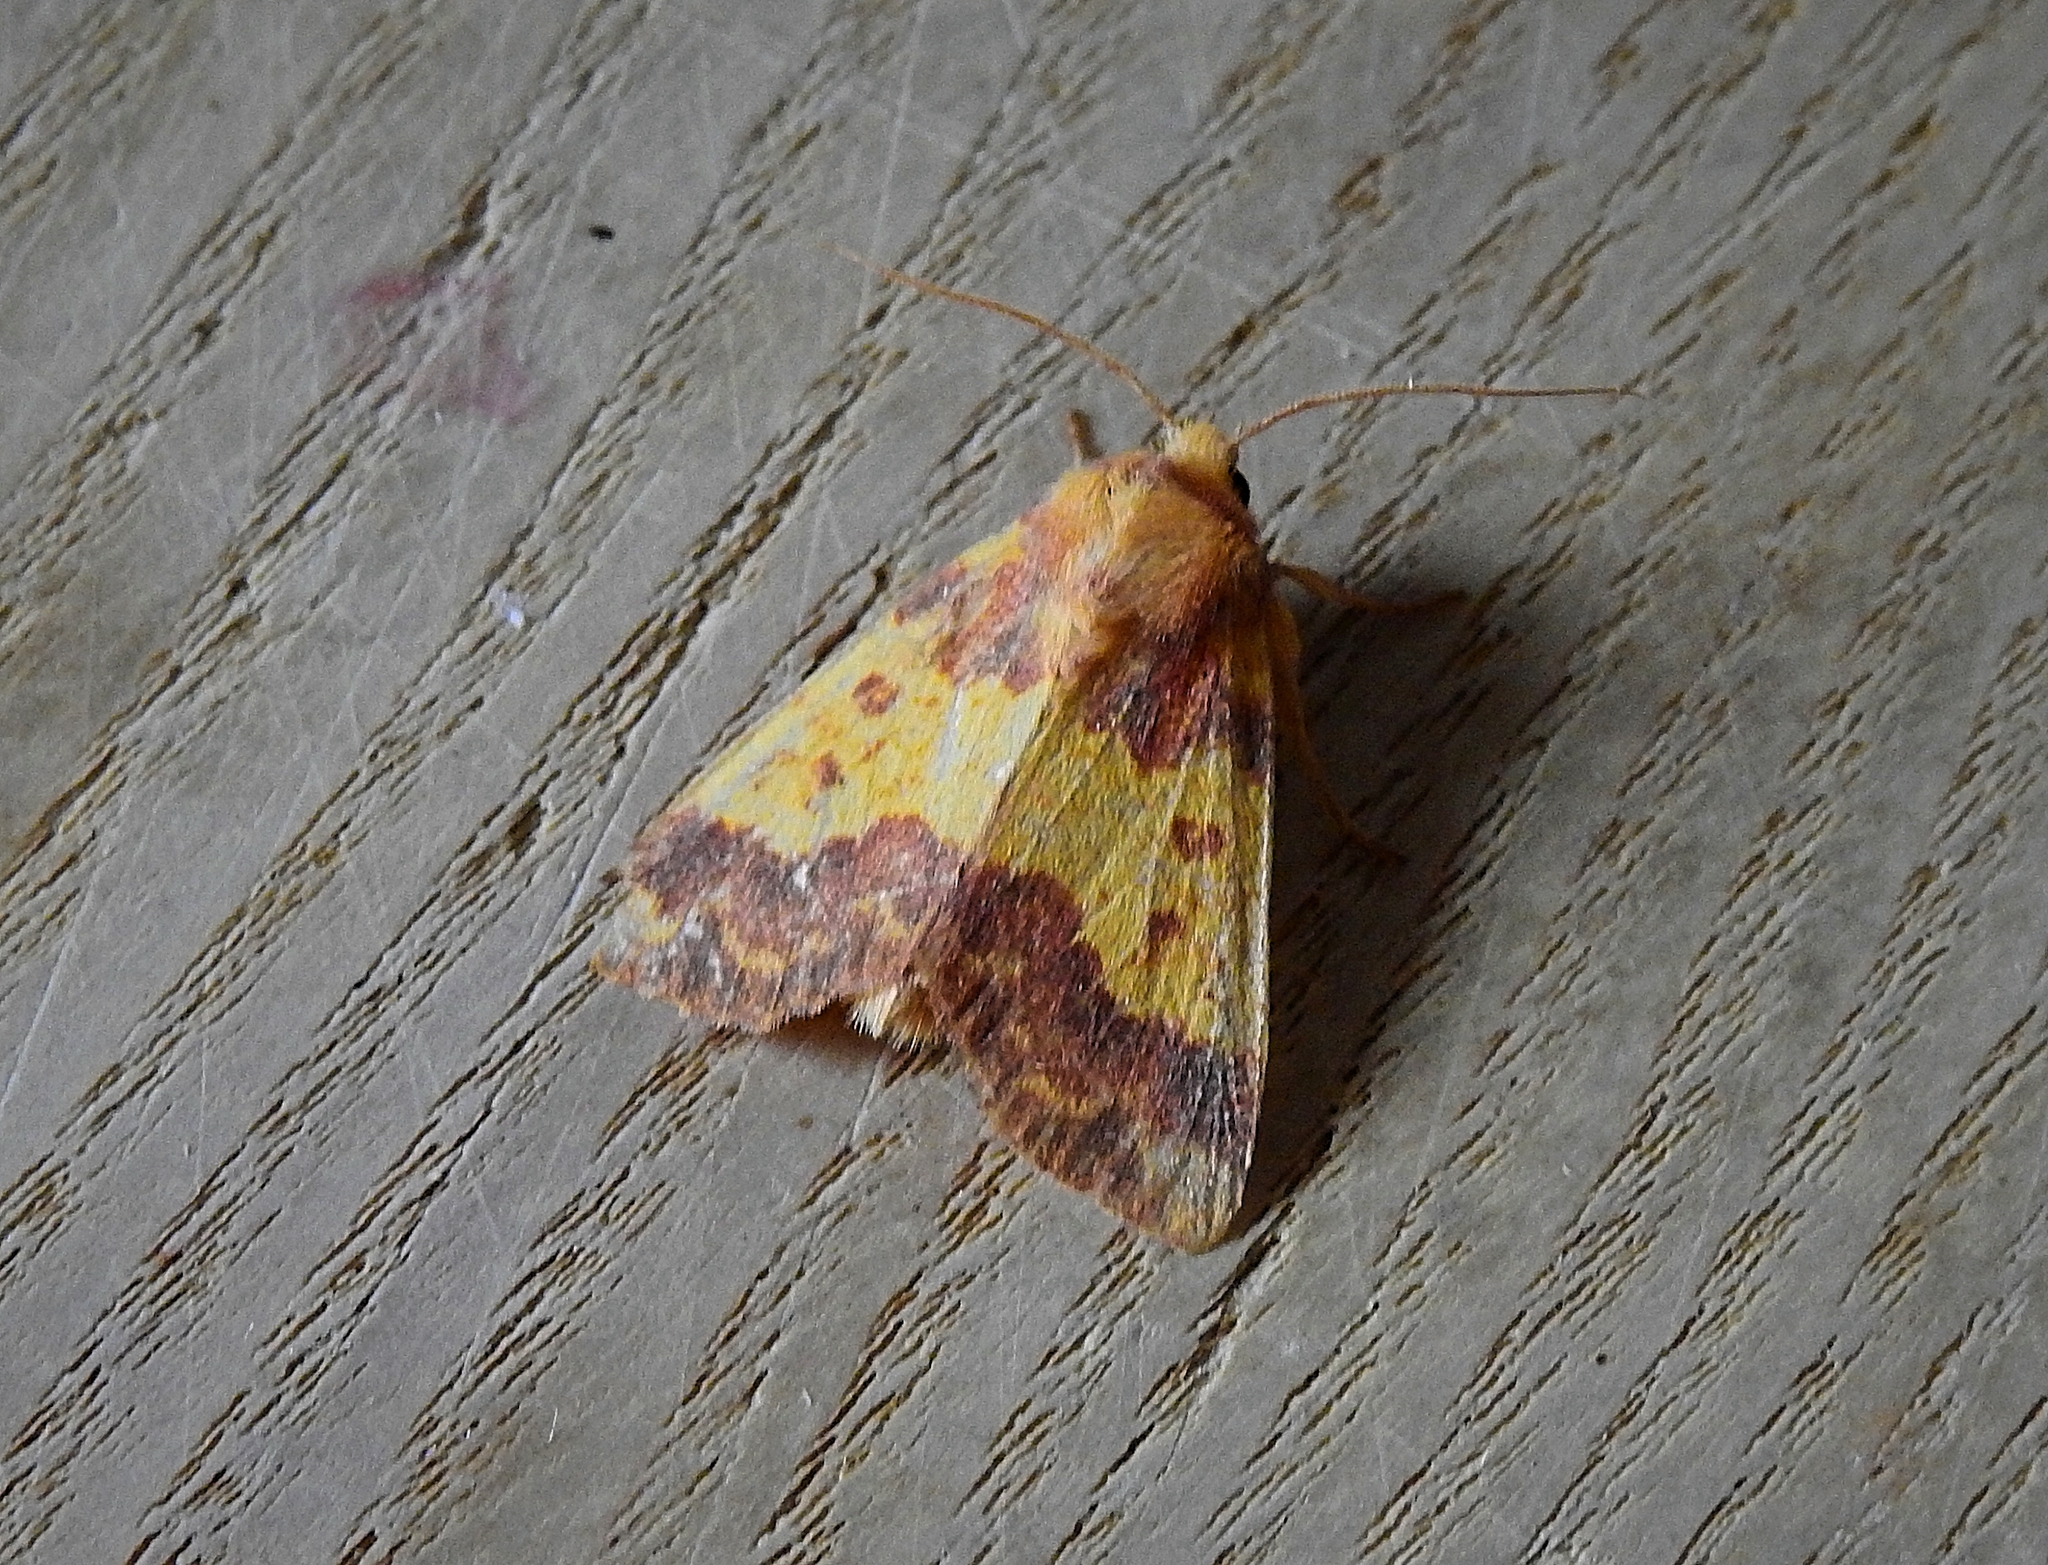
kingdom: Animalia
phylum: Arthropoda
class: Insecta
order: Lepidoptera
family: Noctuidae
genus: Tiliacea
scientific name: Tiliacea aurago
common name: Barred sallow
